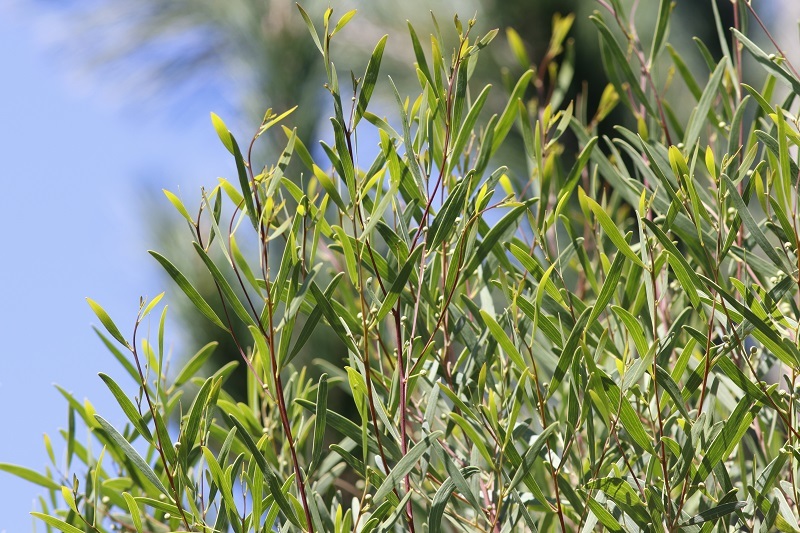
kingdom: Plantae
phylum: Tracheophyta
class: Magnoliopsida
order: Fabales
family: Fabaceae
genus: Acacia
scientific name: Acacia cyclops
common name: Coastal wattle
